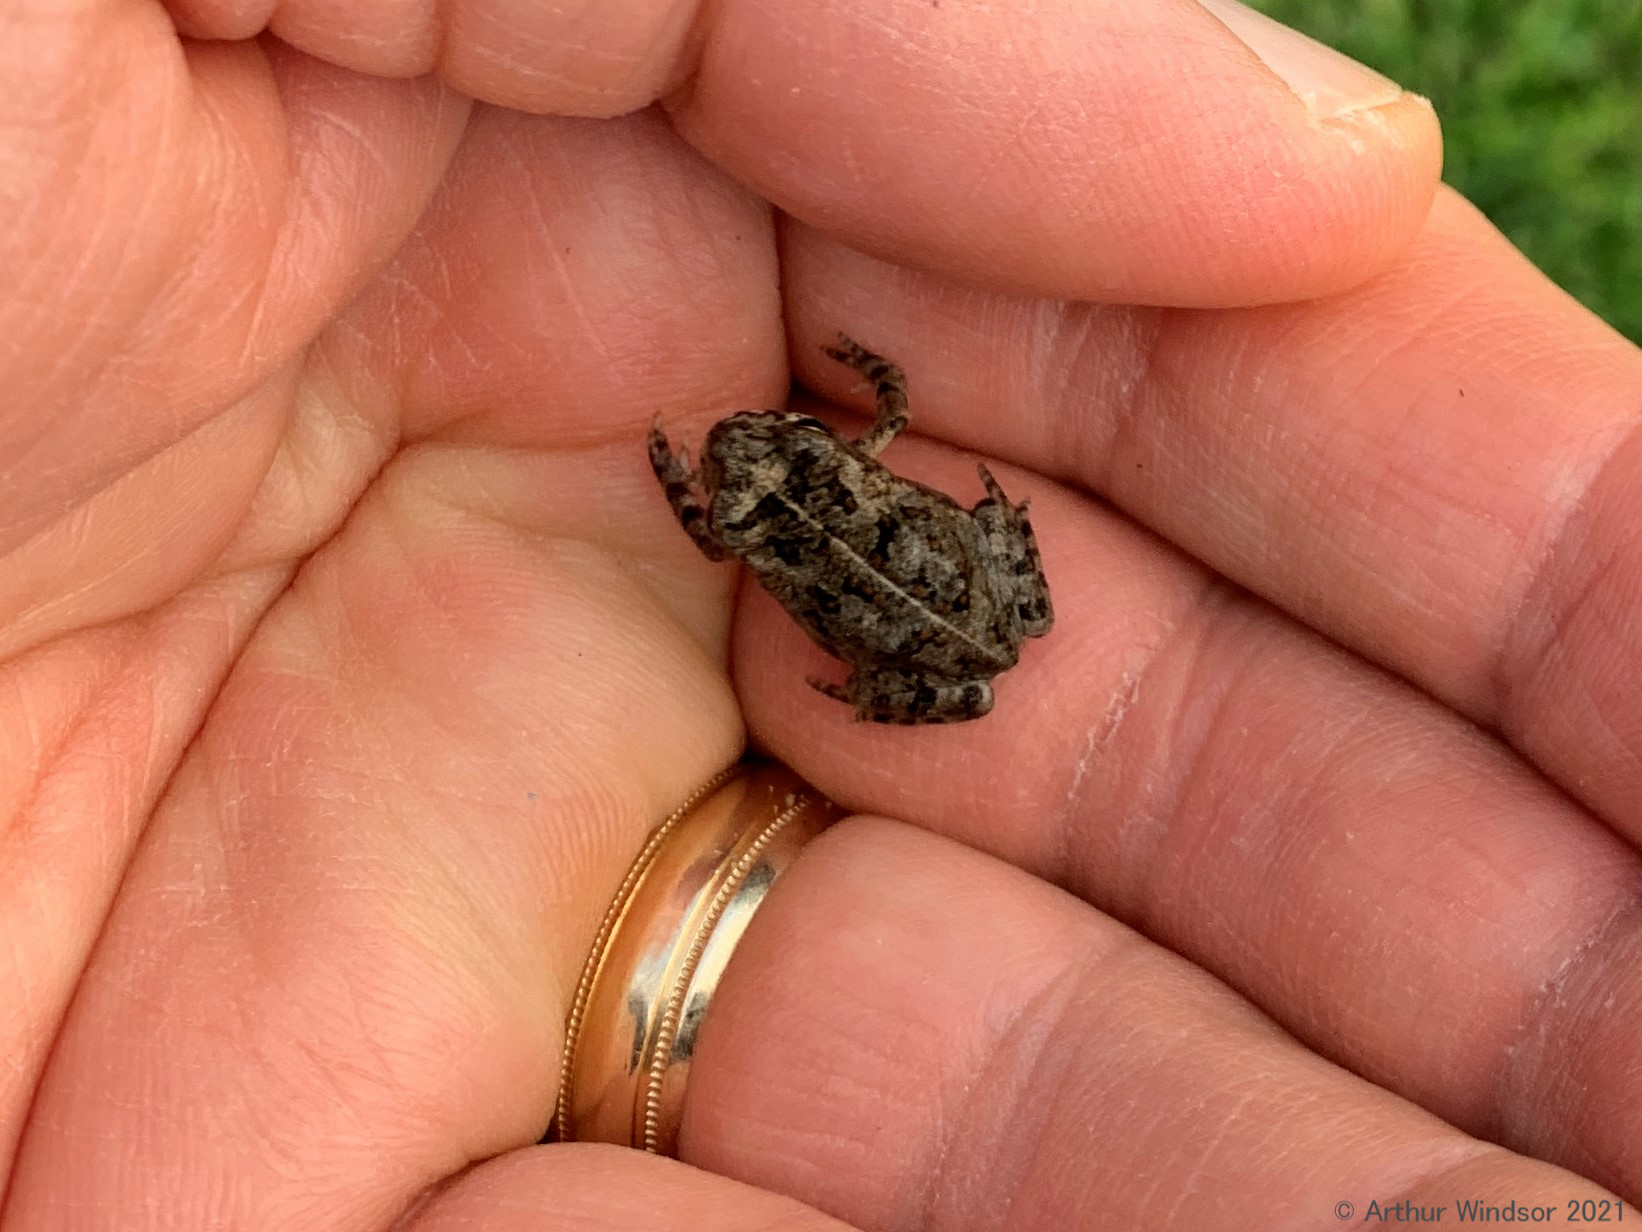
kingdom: Animalia
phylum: Chordata
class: Amphibia
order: Anura
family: Bufonidae
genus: Rhinella
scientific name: Rhinella marina
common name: Cane toad
